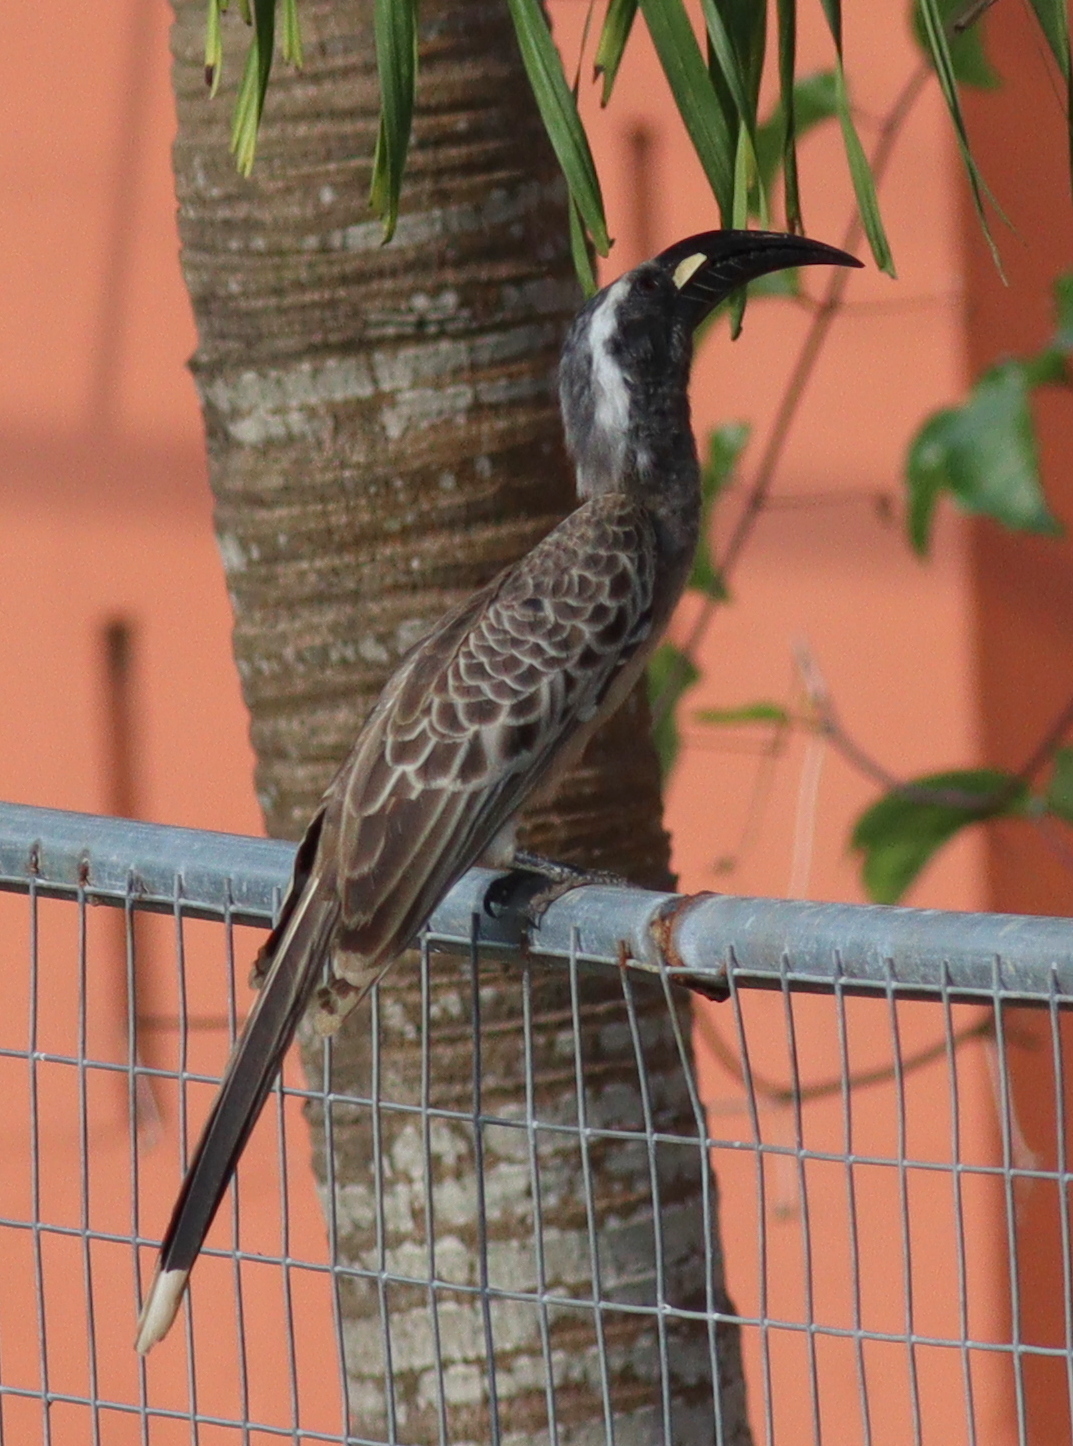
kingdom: Animalia
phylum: Chordata
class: Aves
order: Bucerotiformes
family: Bucerotidae
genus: Lophoceros
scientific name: Lophoceros nasutus
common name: African grey hornbill
